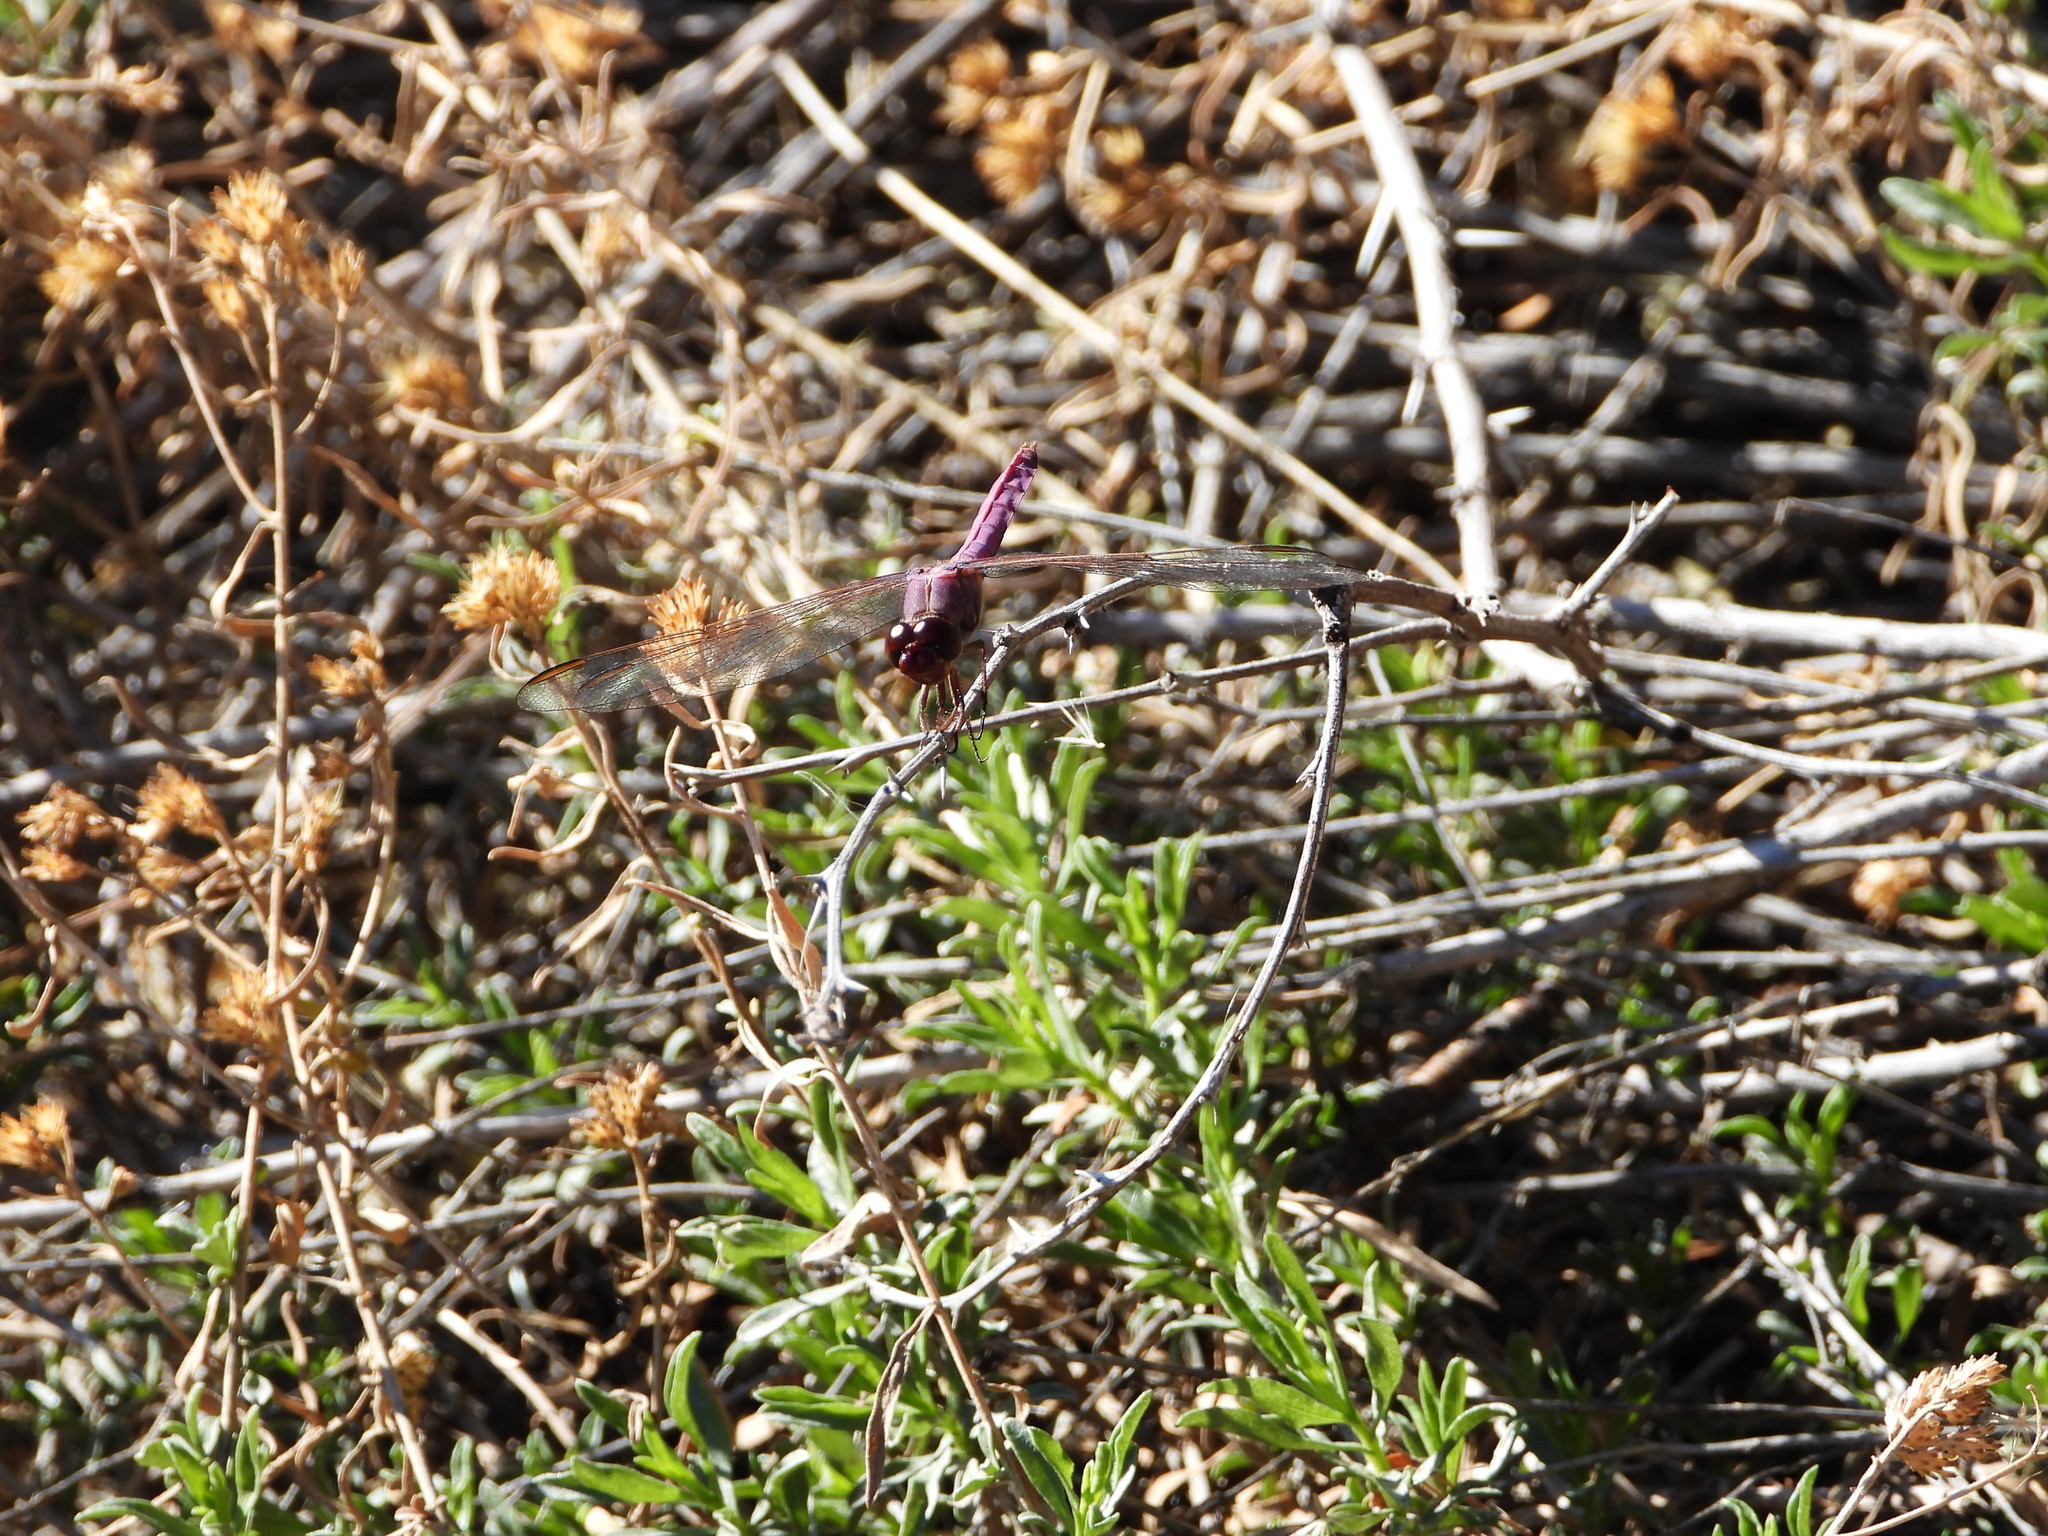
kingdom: Animalia
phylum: Arthropoda
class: Insecta
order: Odonata
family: Libellulidae
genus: Orthemis
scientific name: Orthemis ferruginea
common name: Roseate skimmer
